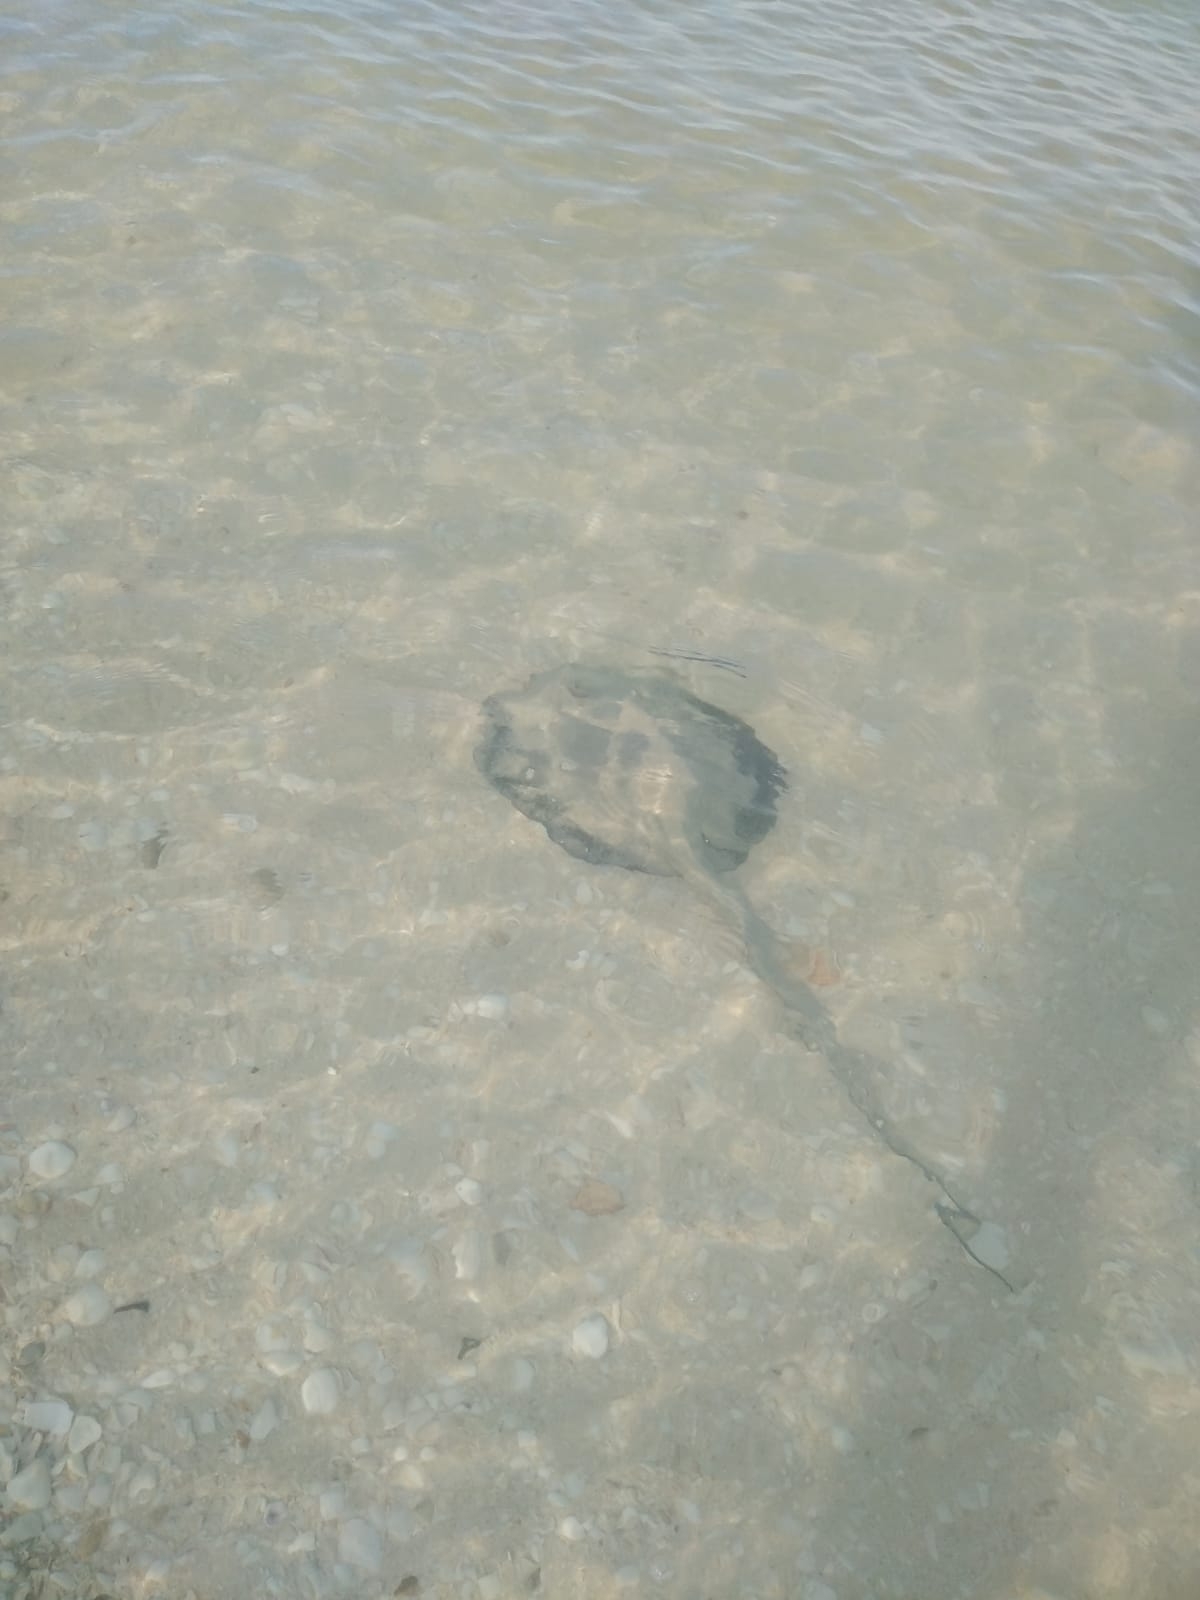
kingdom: Animalia
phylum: Chordata
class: Elasmobranchii
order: Myliobatiformes
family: Potamotrygonidae
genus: Styracura
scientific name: Styracura schmardae
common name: Atlantic chupare
